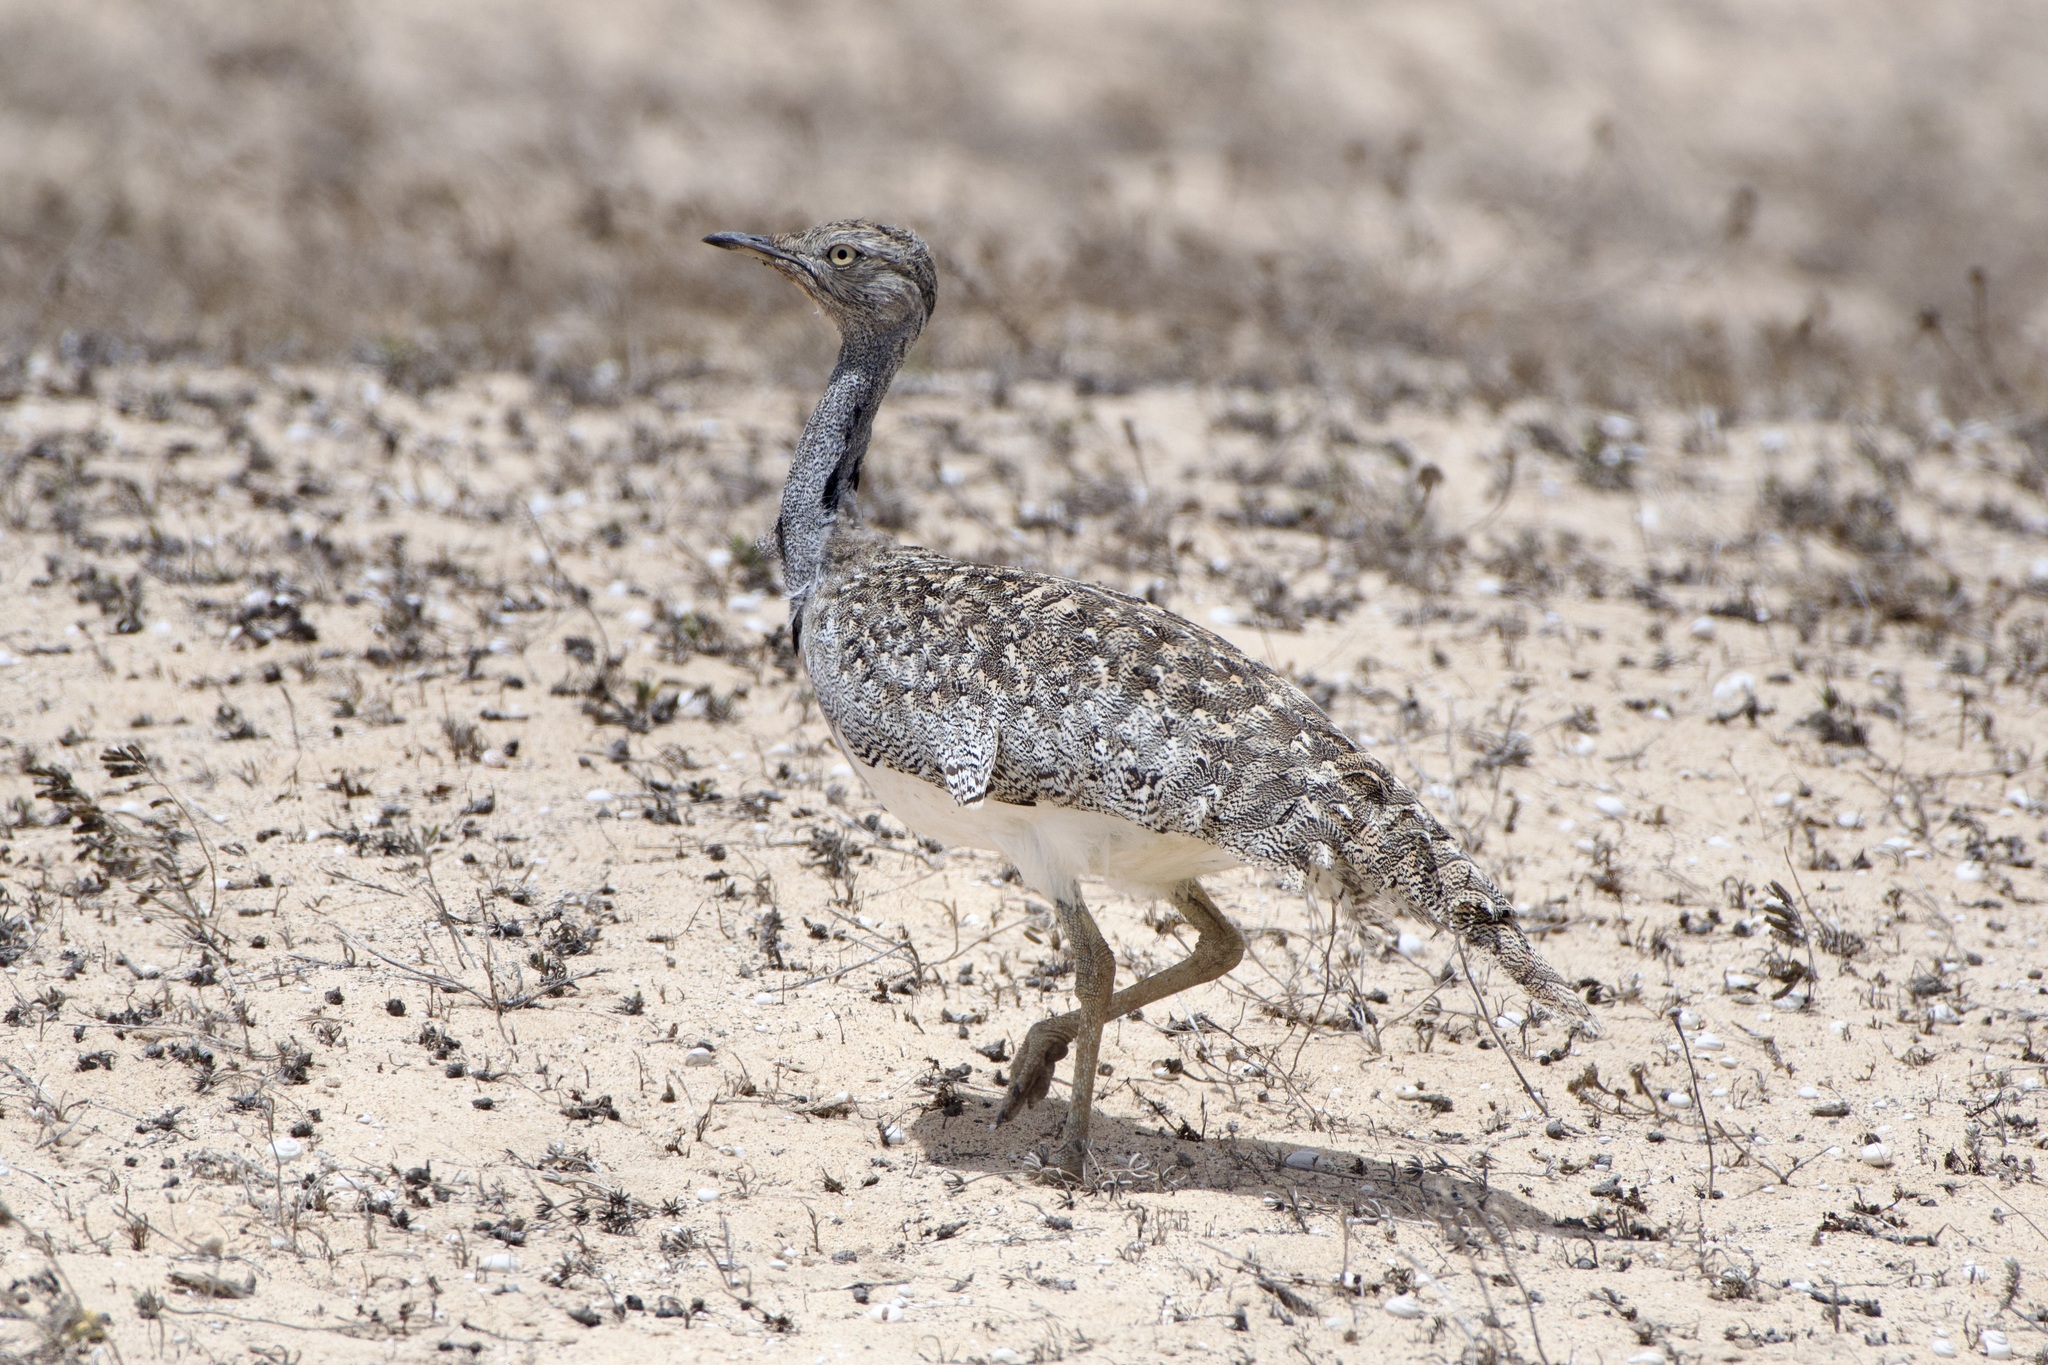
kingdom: Animalia
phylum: Chordata
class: Aves
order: Otidiformes
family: Otididae
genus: Chlamydotis
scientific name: Chlamydotis undulata
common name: Houbara bustard
